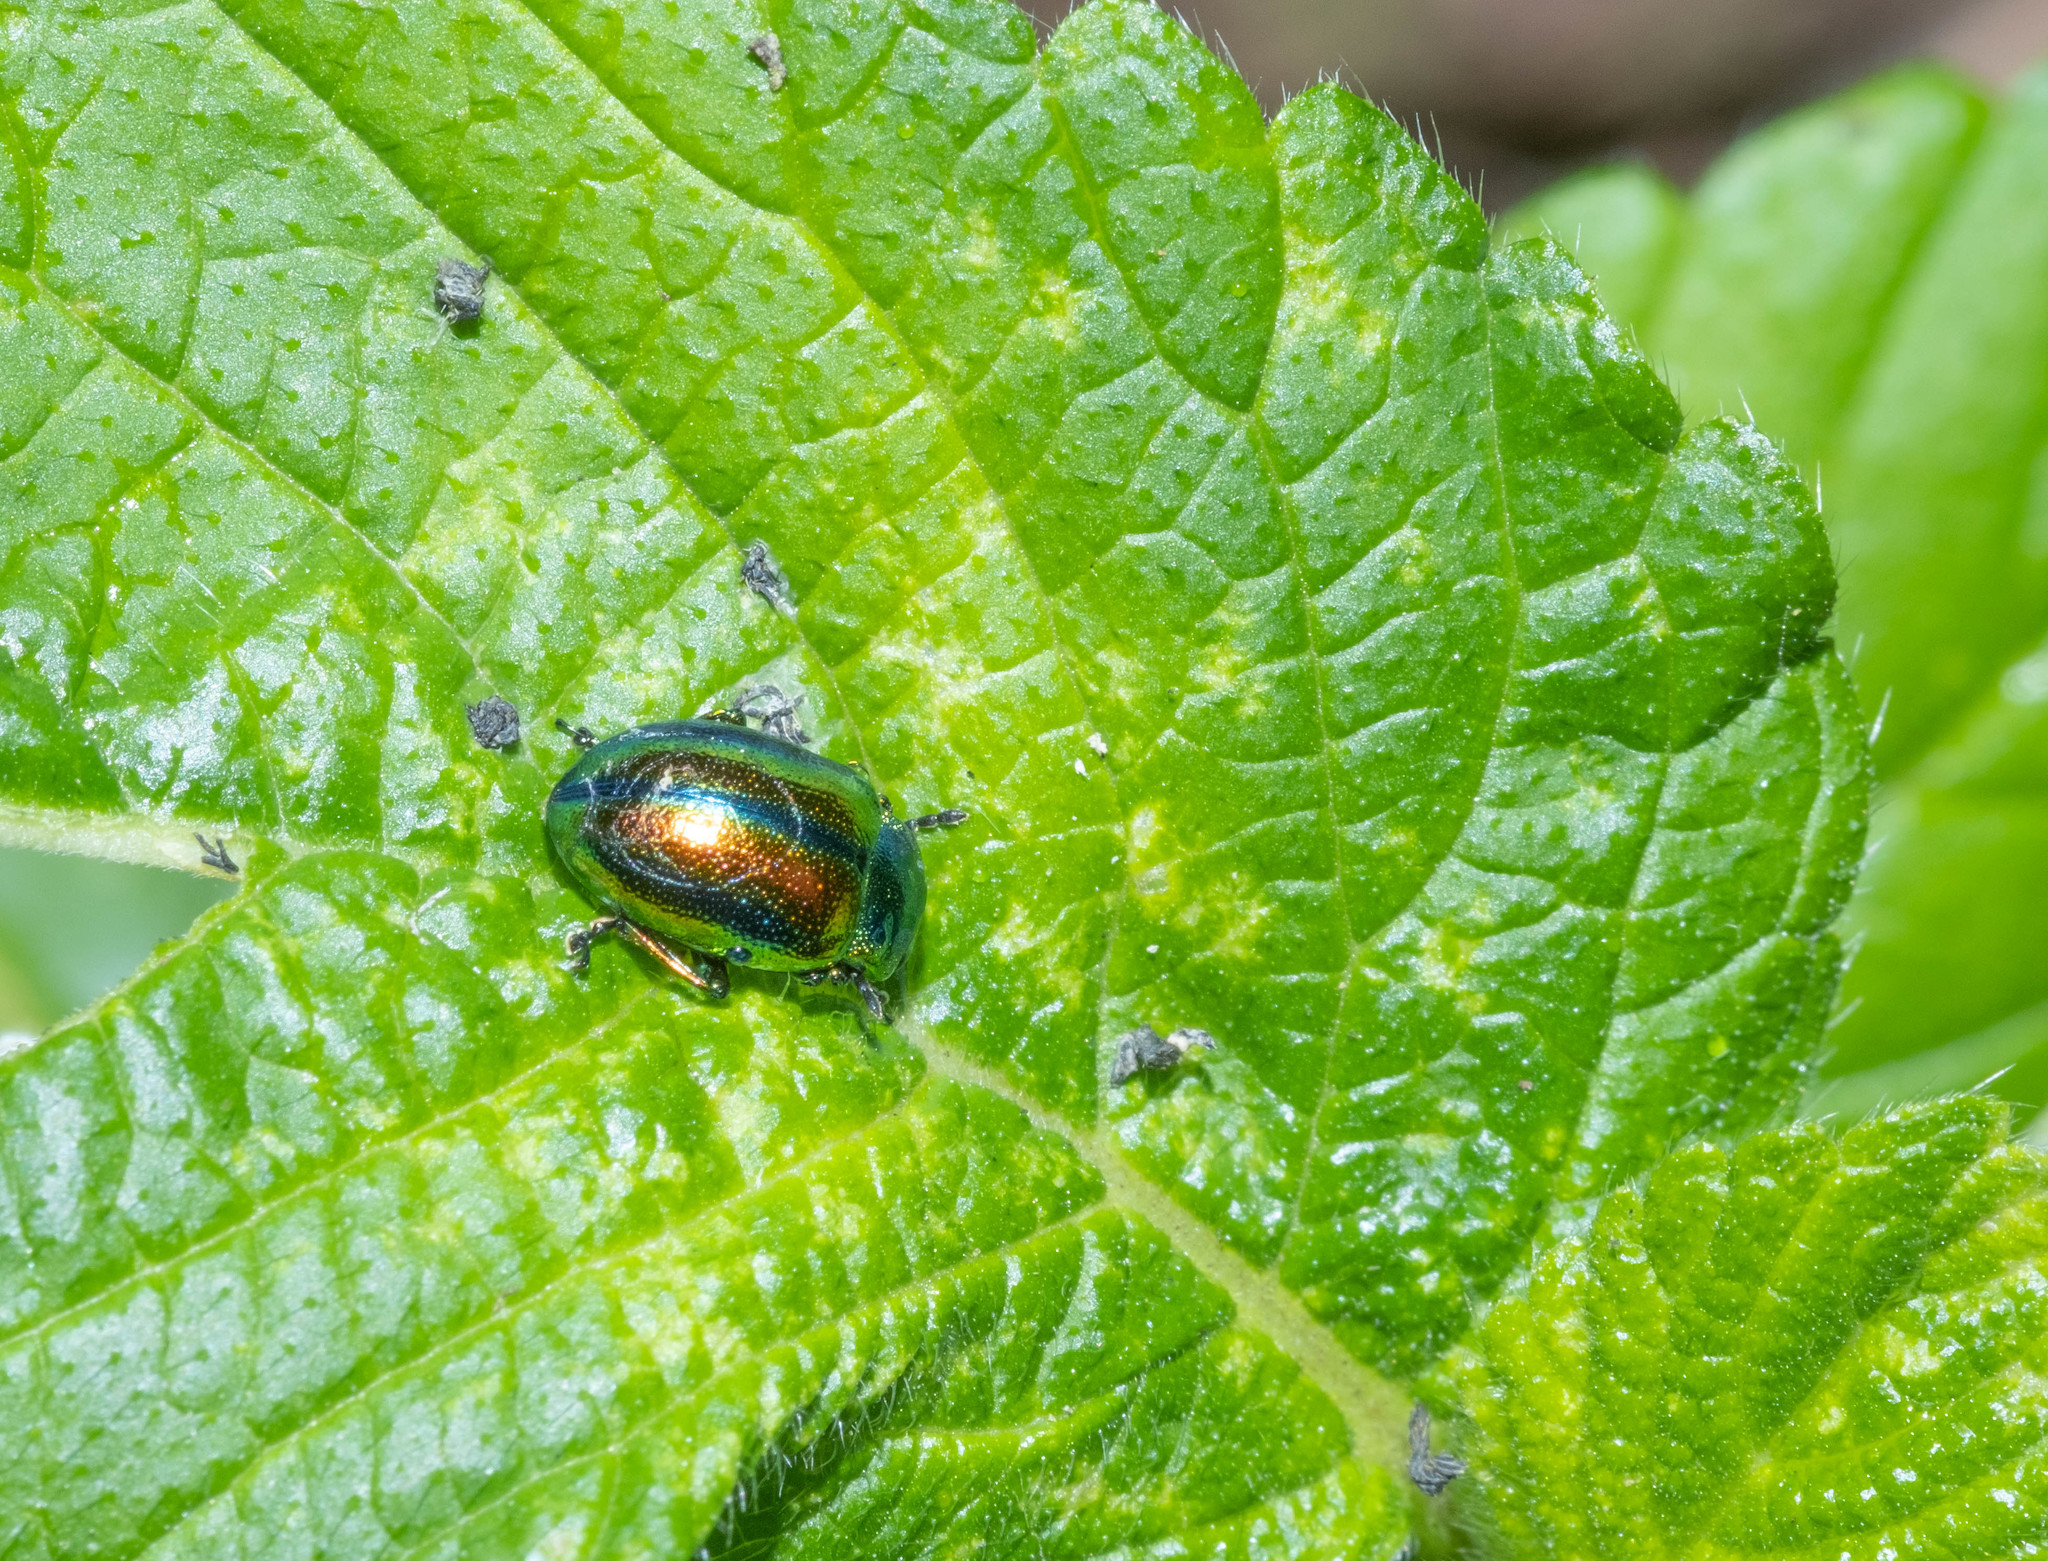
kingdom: Animalia
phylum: Arthropoda
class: Insecta
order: Coleoptera
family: Chrysomelidae
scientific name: Chrysomelidae
